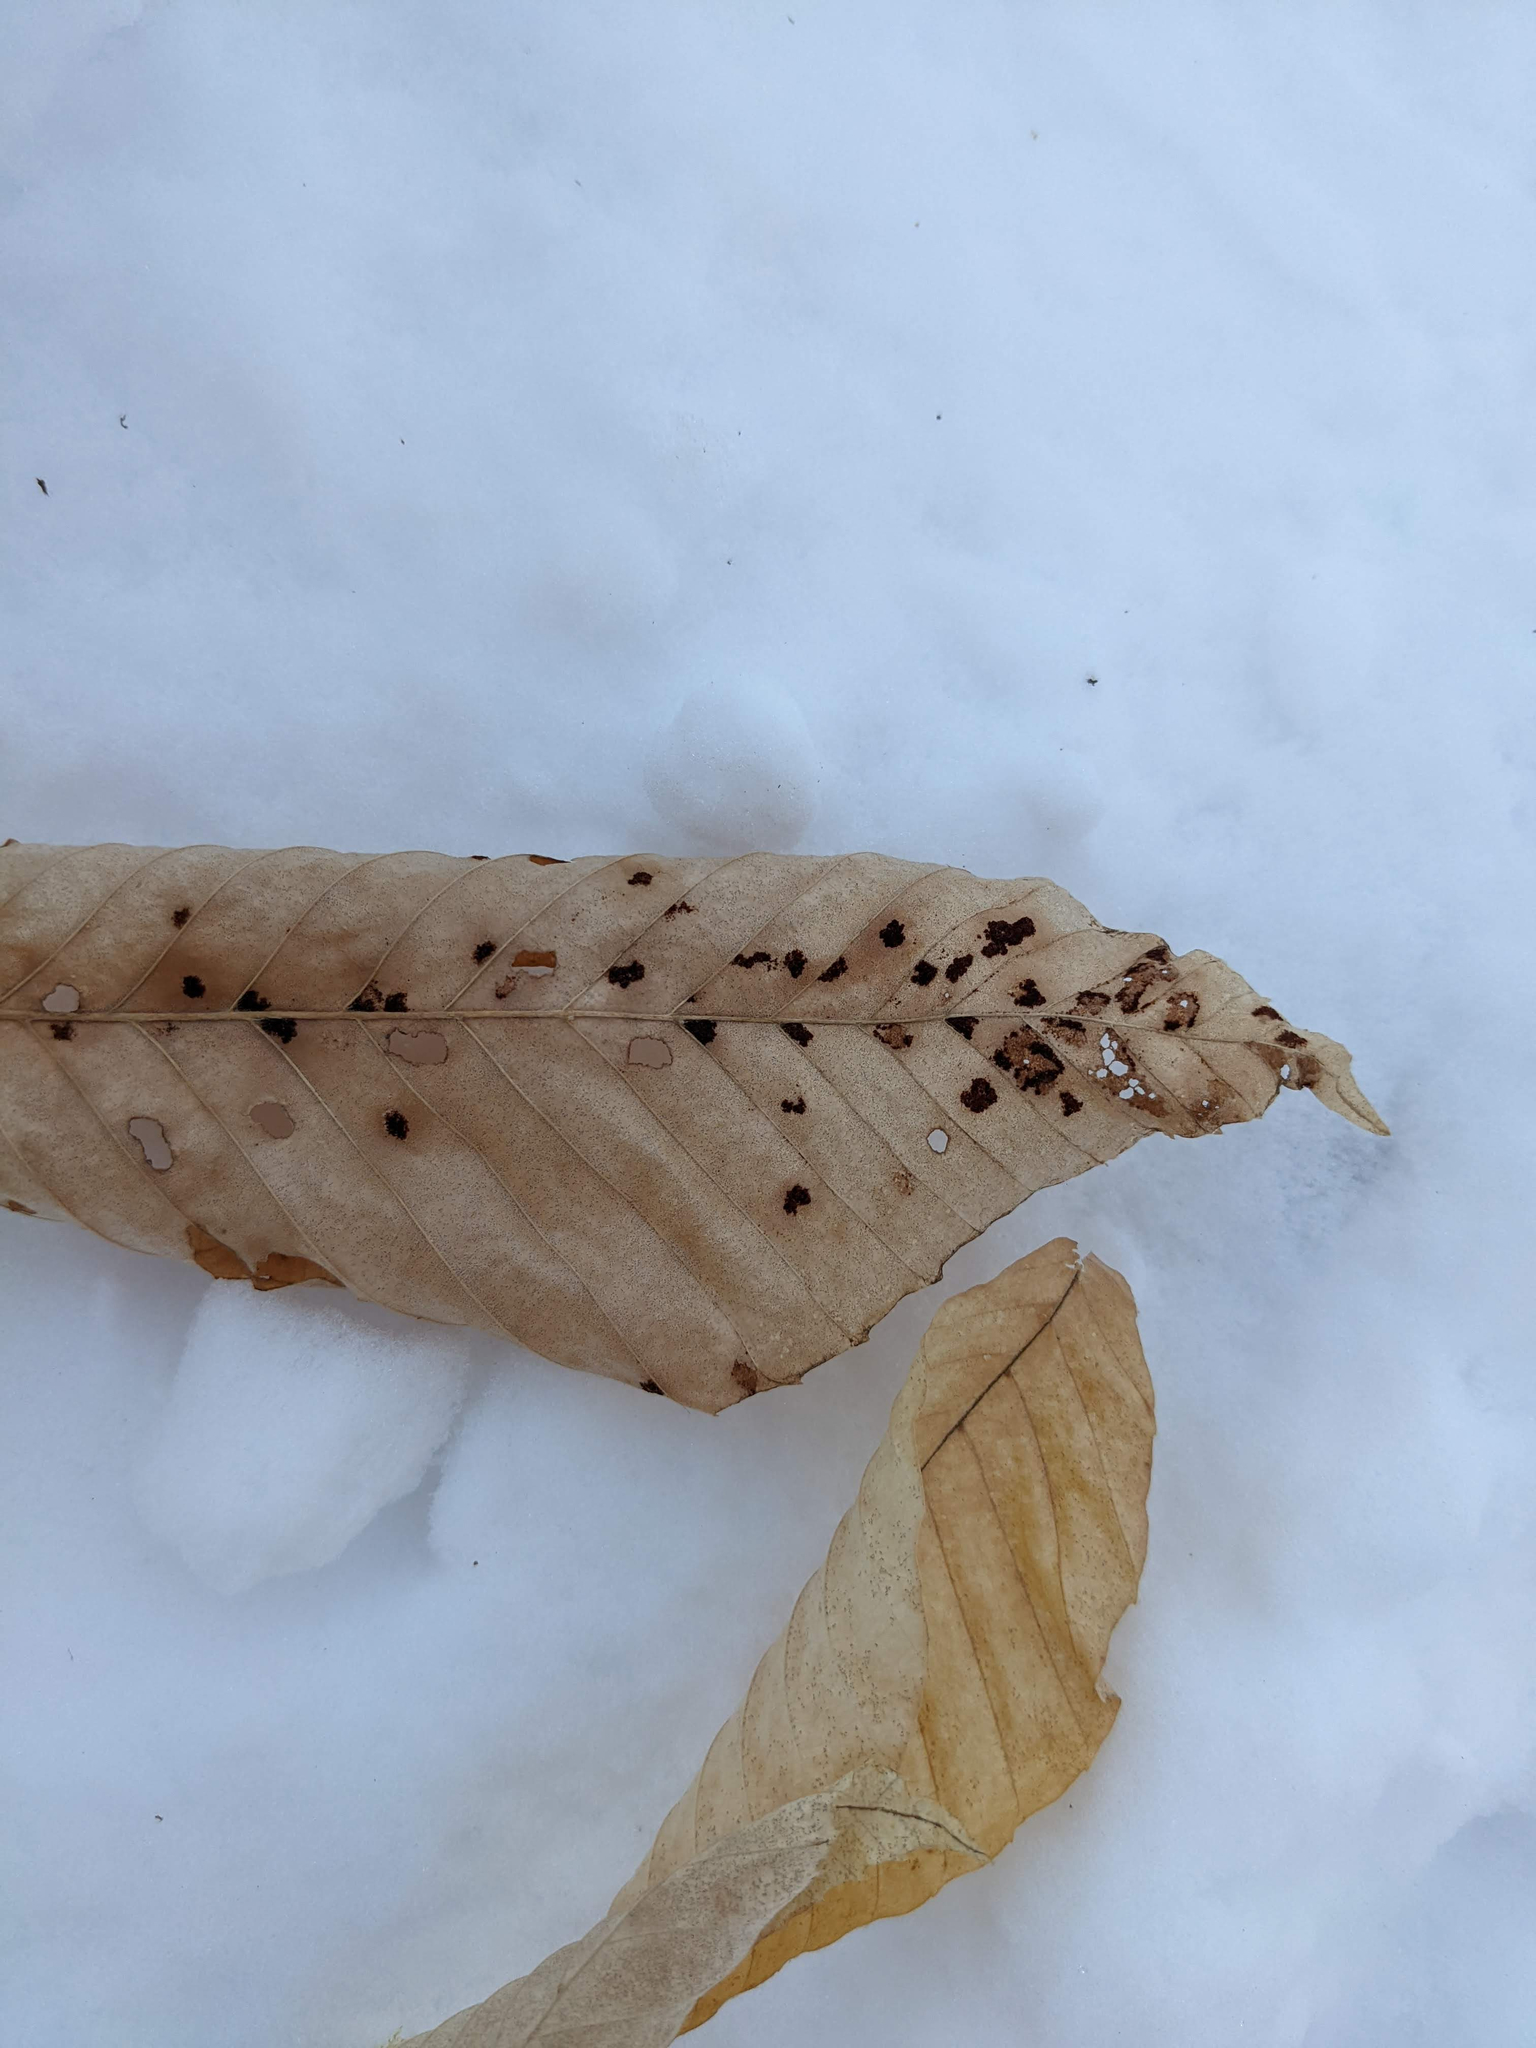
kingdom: Plantae
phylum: Tracheophyta
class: Magnoliopsida
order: Fagales
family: Fagaceae
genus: Fagus
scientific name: Fagus grandifolia
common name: American beech
